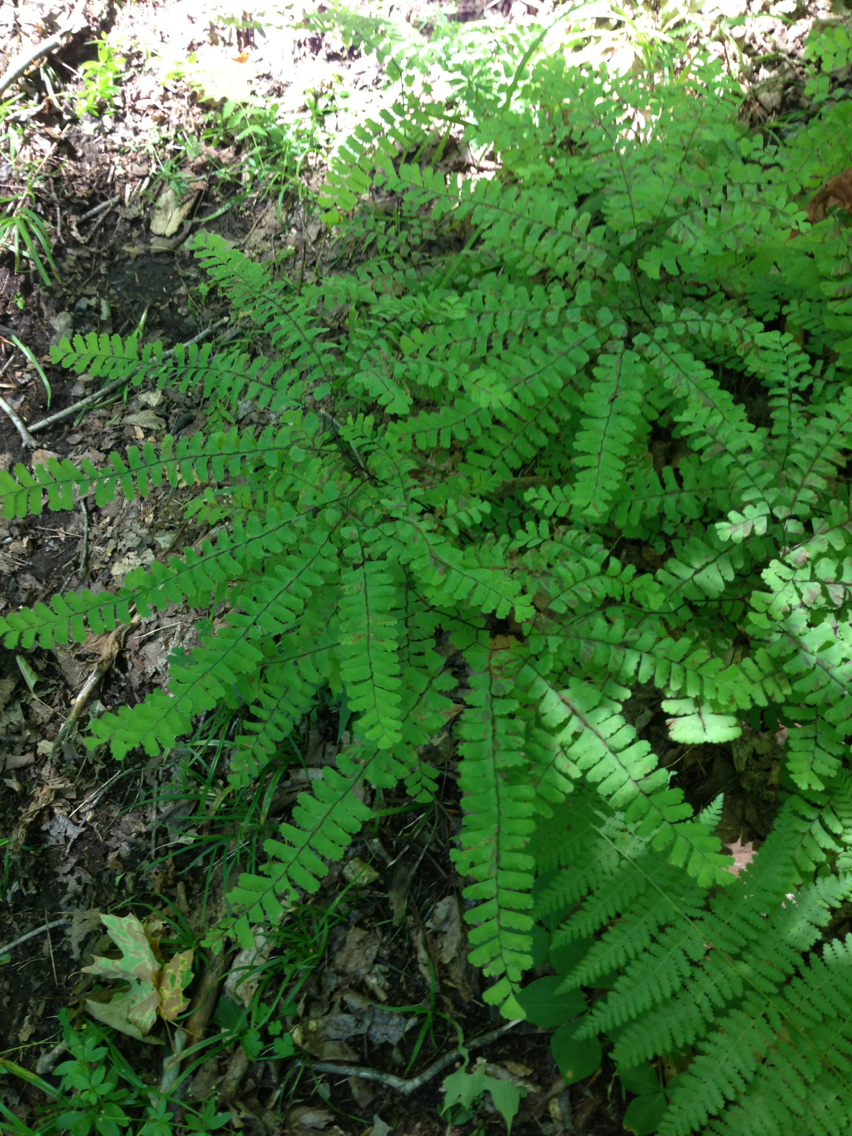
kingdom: Plantae
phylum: Tracheophyta
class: Polypodiopsida
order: Polypodiales
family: Pteridaceae
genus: Adiantum
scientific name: Adiantum pedatum
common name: Five-finger fern
